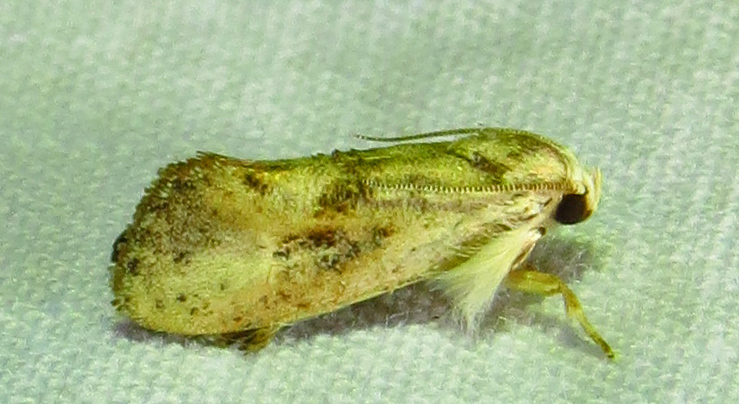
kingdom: Animalia
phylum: Arthropoda
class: Insecta
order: Lepidoptera
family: Tineidae
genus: Acrolophus
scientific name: Acrolophus mycetophagus
